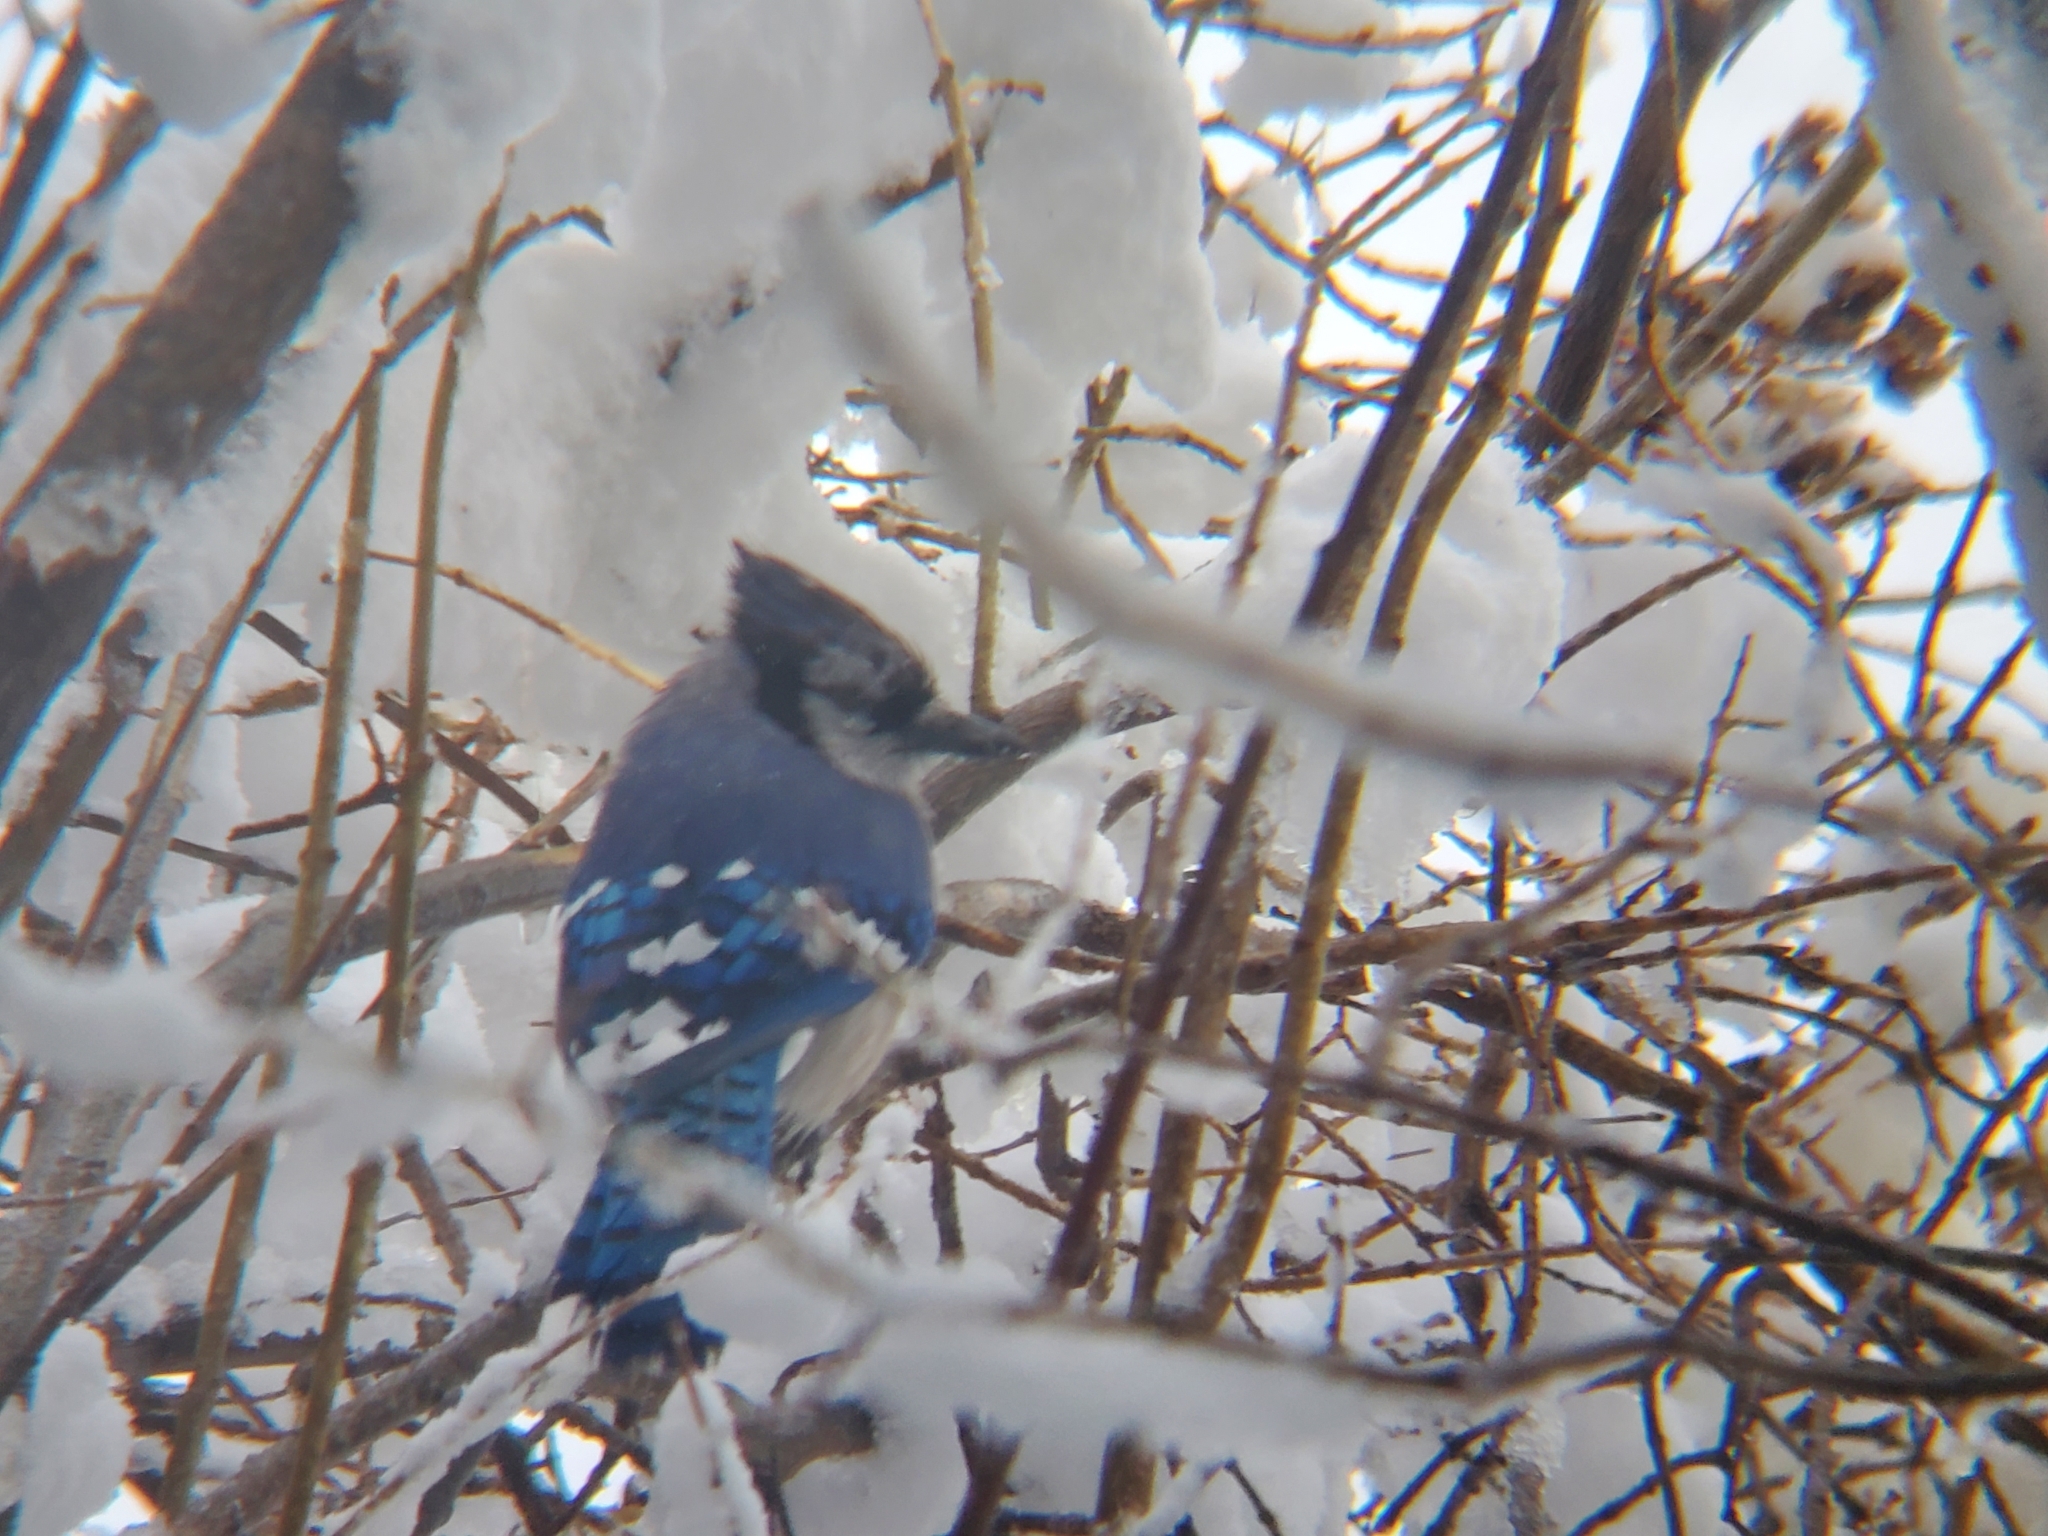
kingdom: Animalia
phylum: Chordata
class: Aves
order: Passeriformes
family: Corvidae
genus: Cyanocitta
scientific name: Cyanocitta cristata
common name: Blue jay
